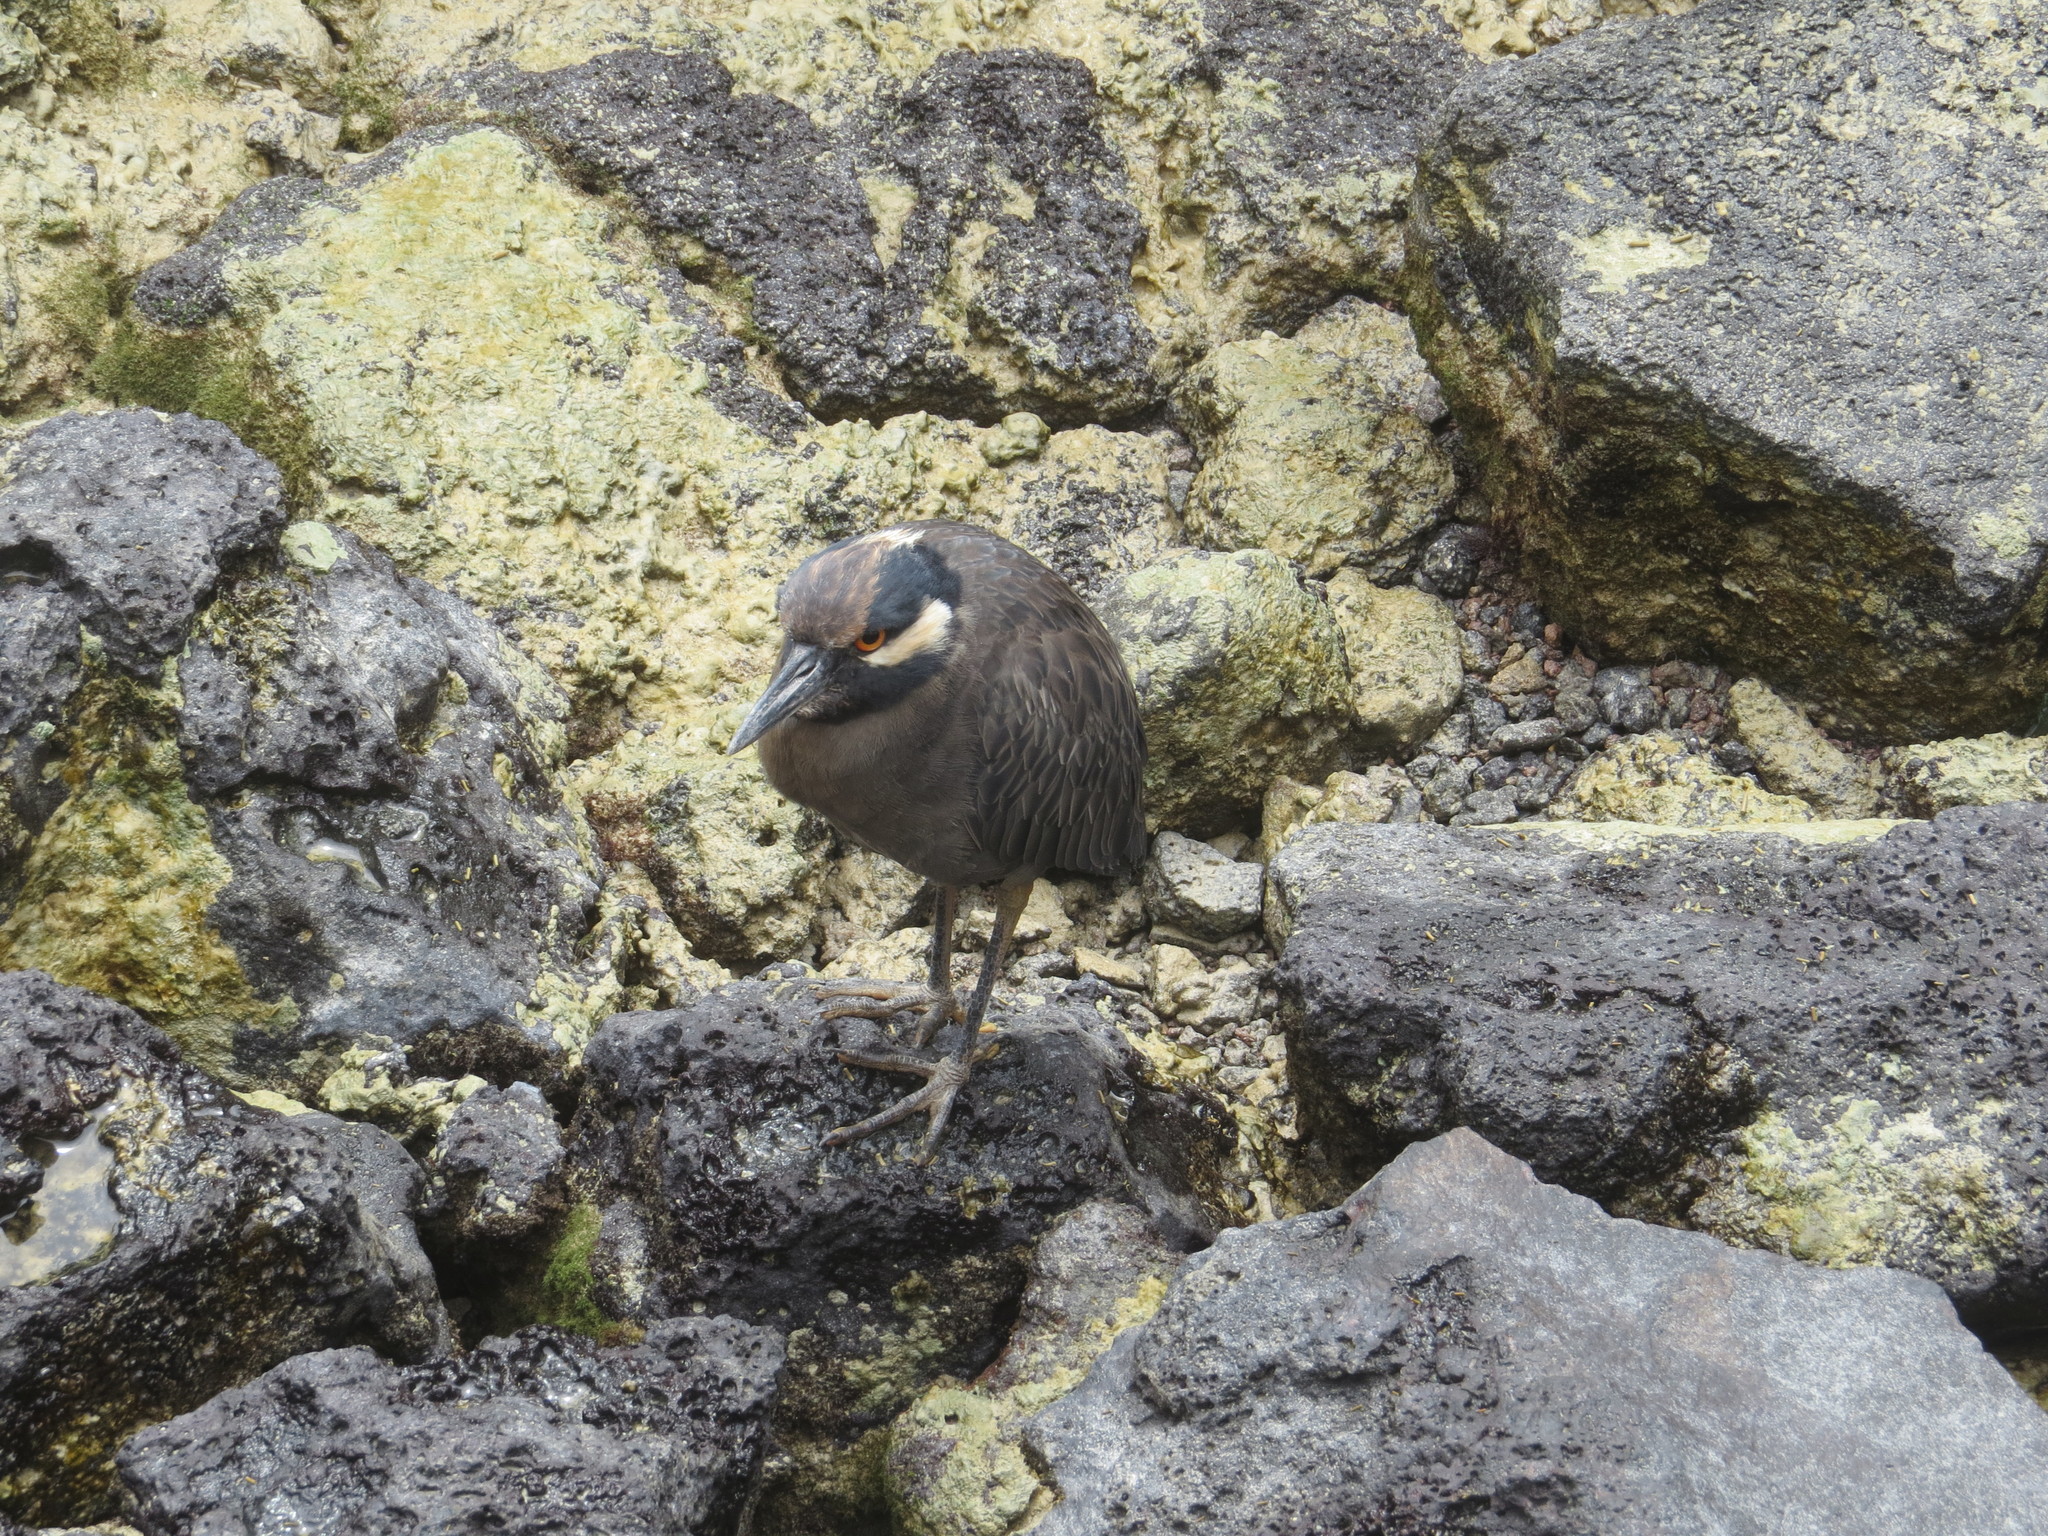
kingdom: Animalia
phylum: Chordata
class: Aves
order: Pelecaniformes
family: Ardeidae
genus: Nyctanassa
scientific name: Nyctanassa violacea
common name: Yellow-crowned night heron
